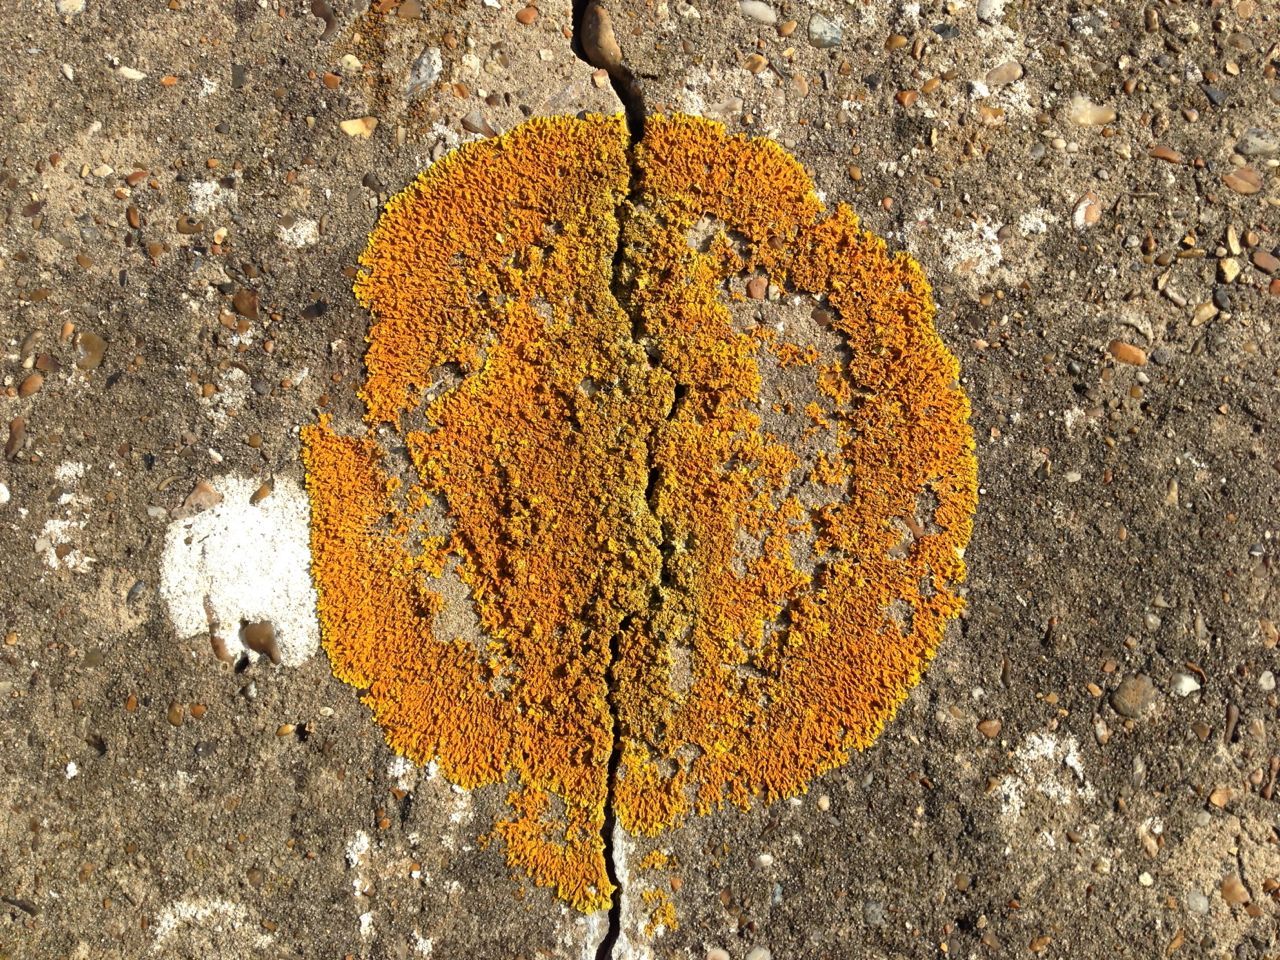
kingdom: Fungi
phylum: Ascomycota
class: Lecanoromycetes
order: Teloschistales
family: Teloschistaceae
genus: Xanthoria
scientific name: Xanthoria
